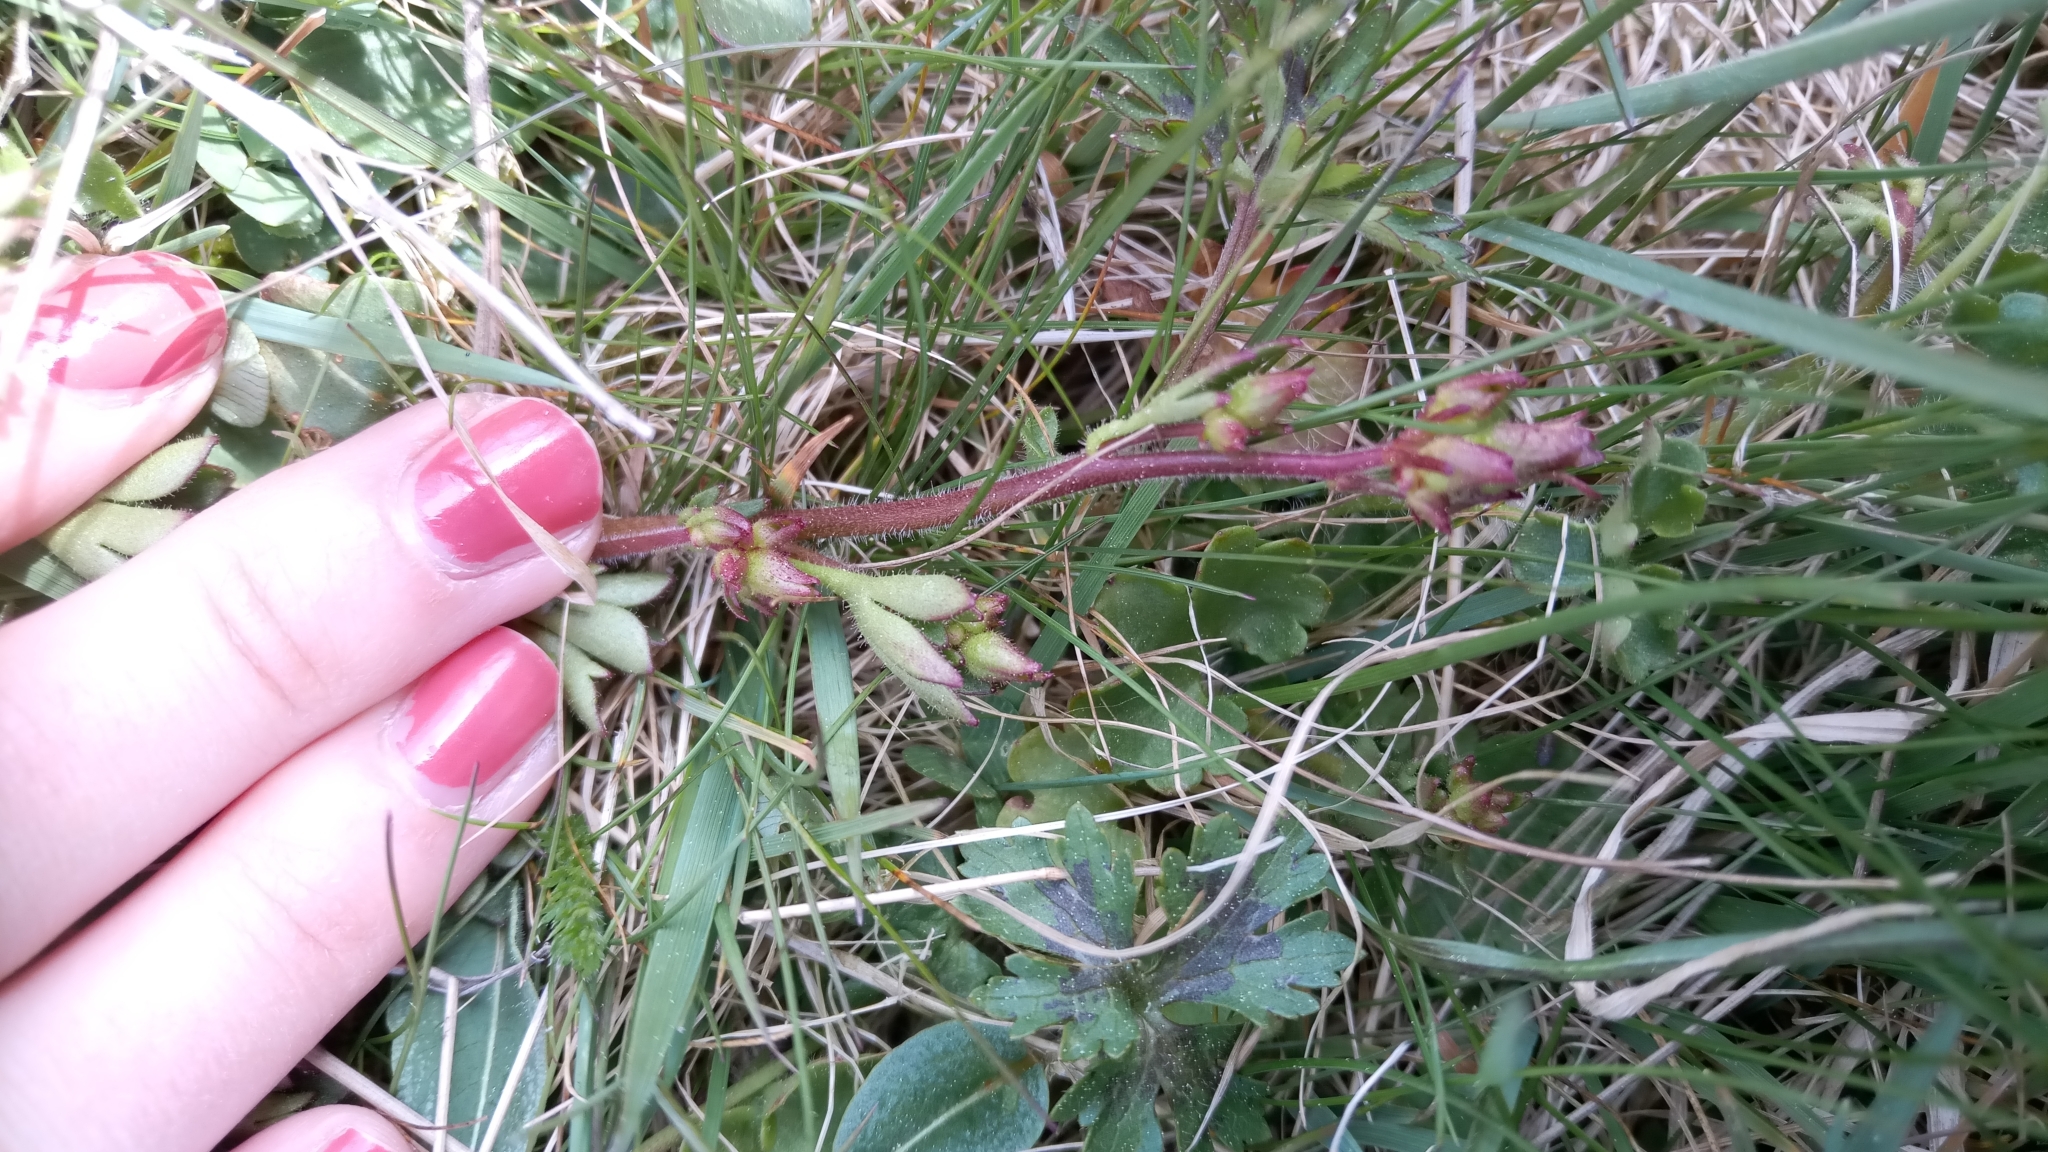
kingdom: Plantae
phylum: Tracheophyta
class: Magnoliopsida
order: Saxifragales
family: Saxifragaceae
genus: Saxifraga
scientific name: Saxifraga granulata
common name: Meadow saxifrage
